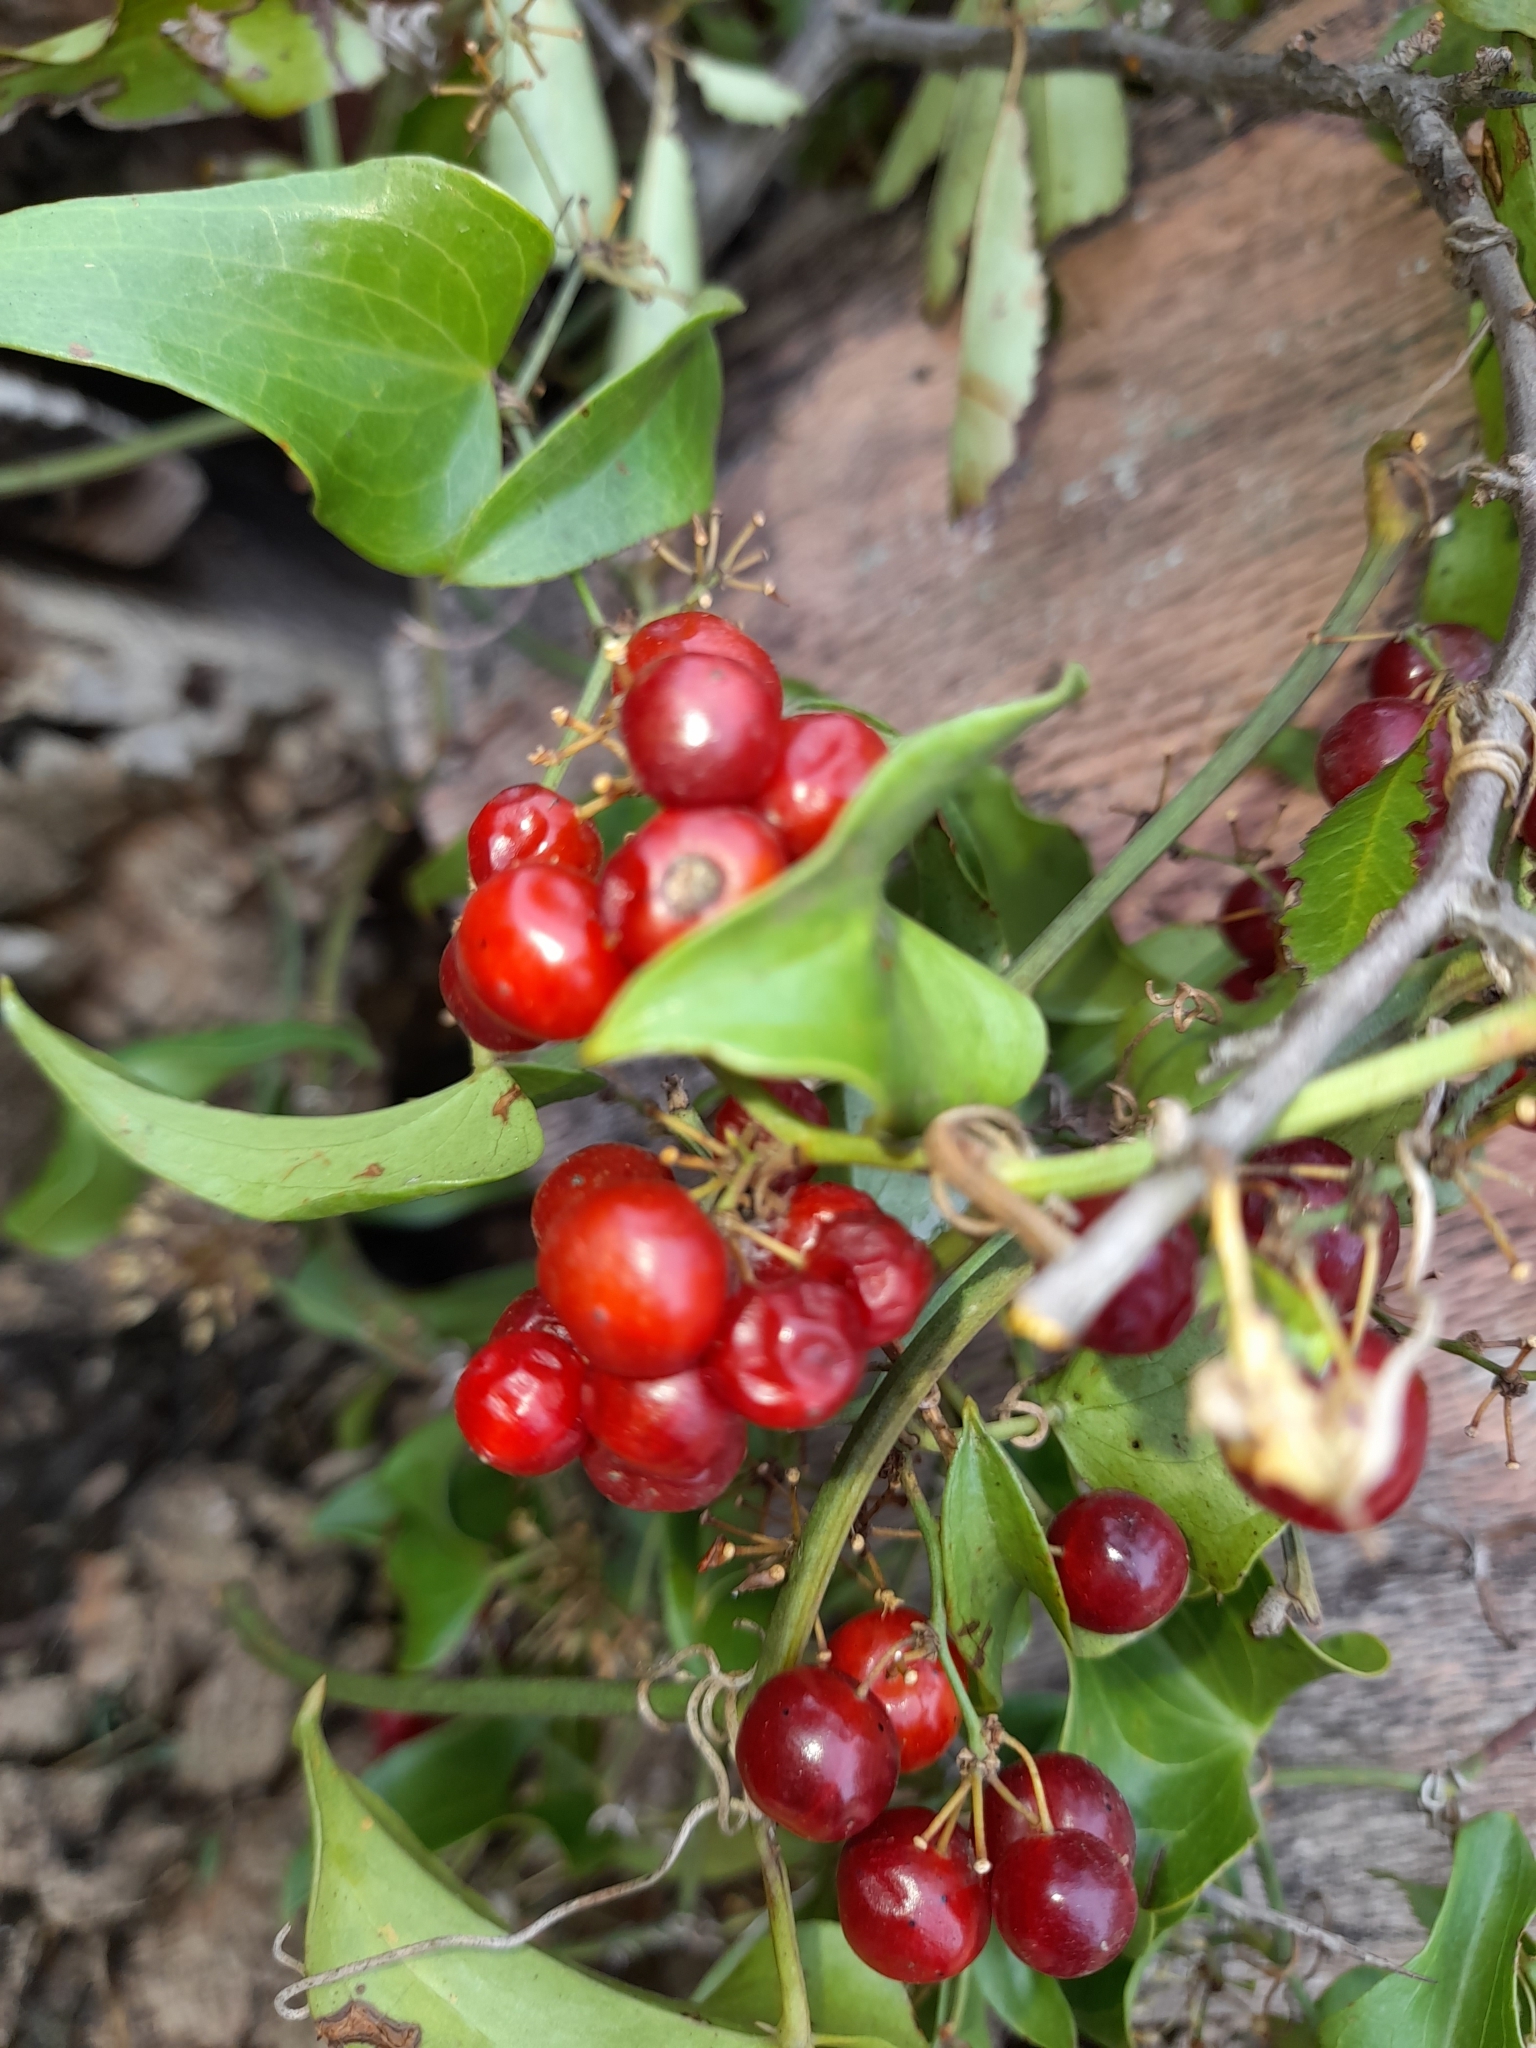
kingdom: Plantae
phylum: Tracheophyta
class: Liliopsida
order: Liliales
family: Smilacaceae
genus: Smilax
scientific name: Smilax aspera
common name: Common smilax
